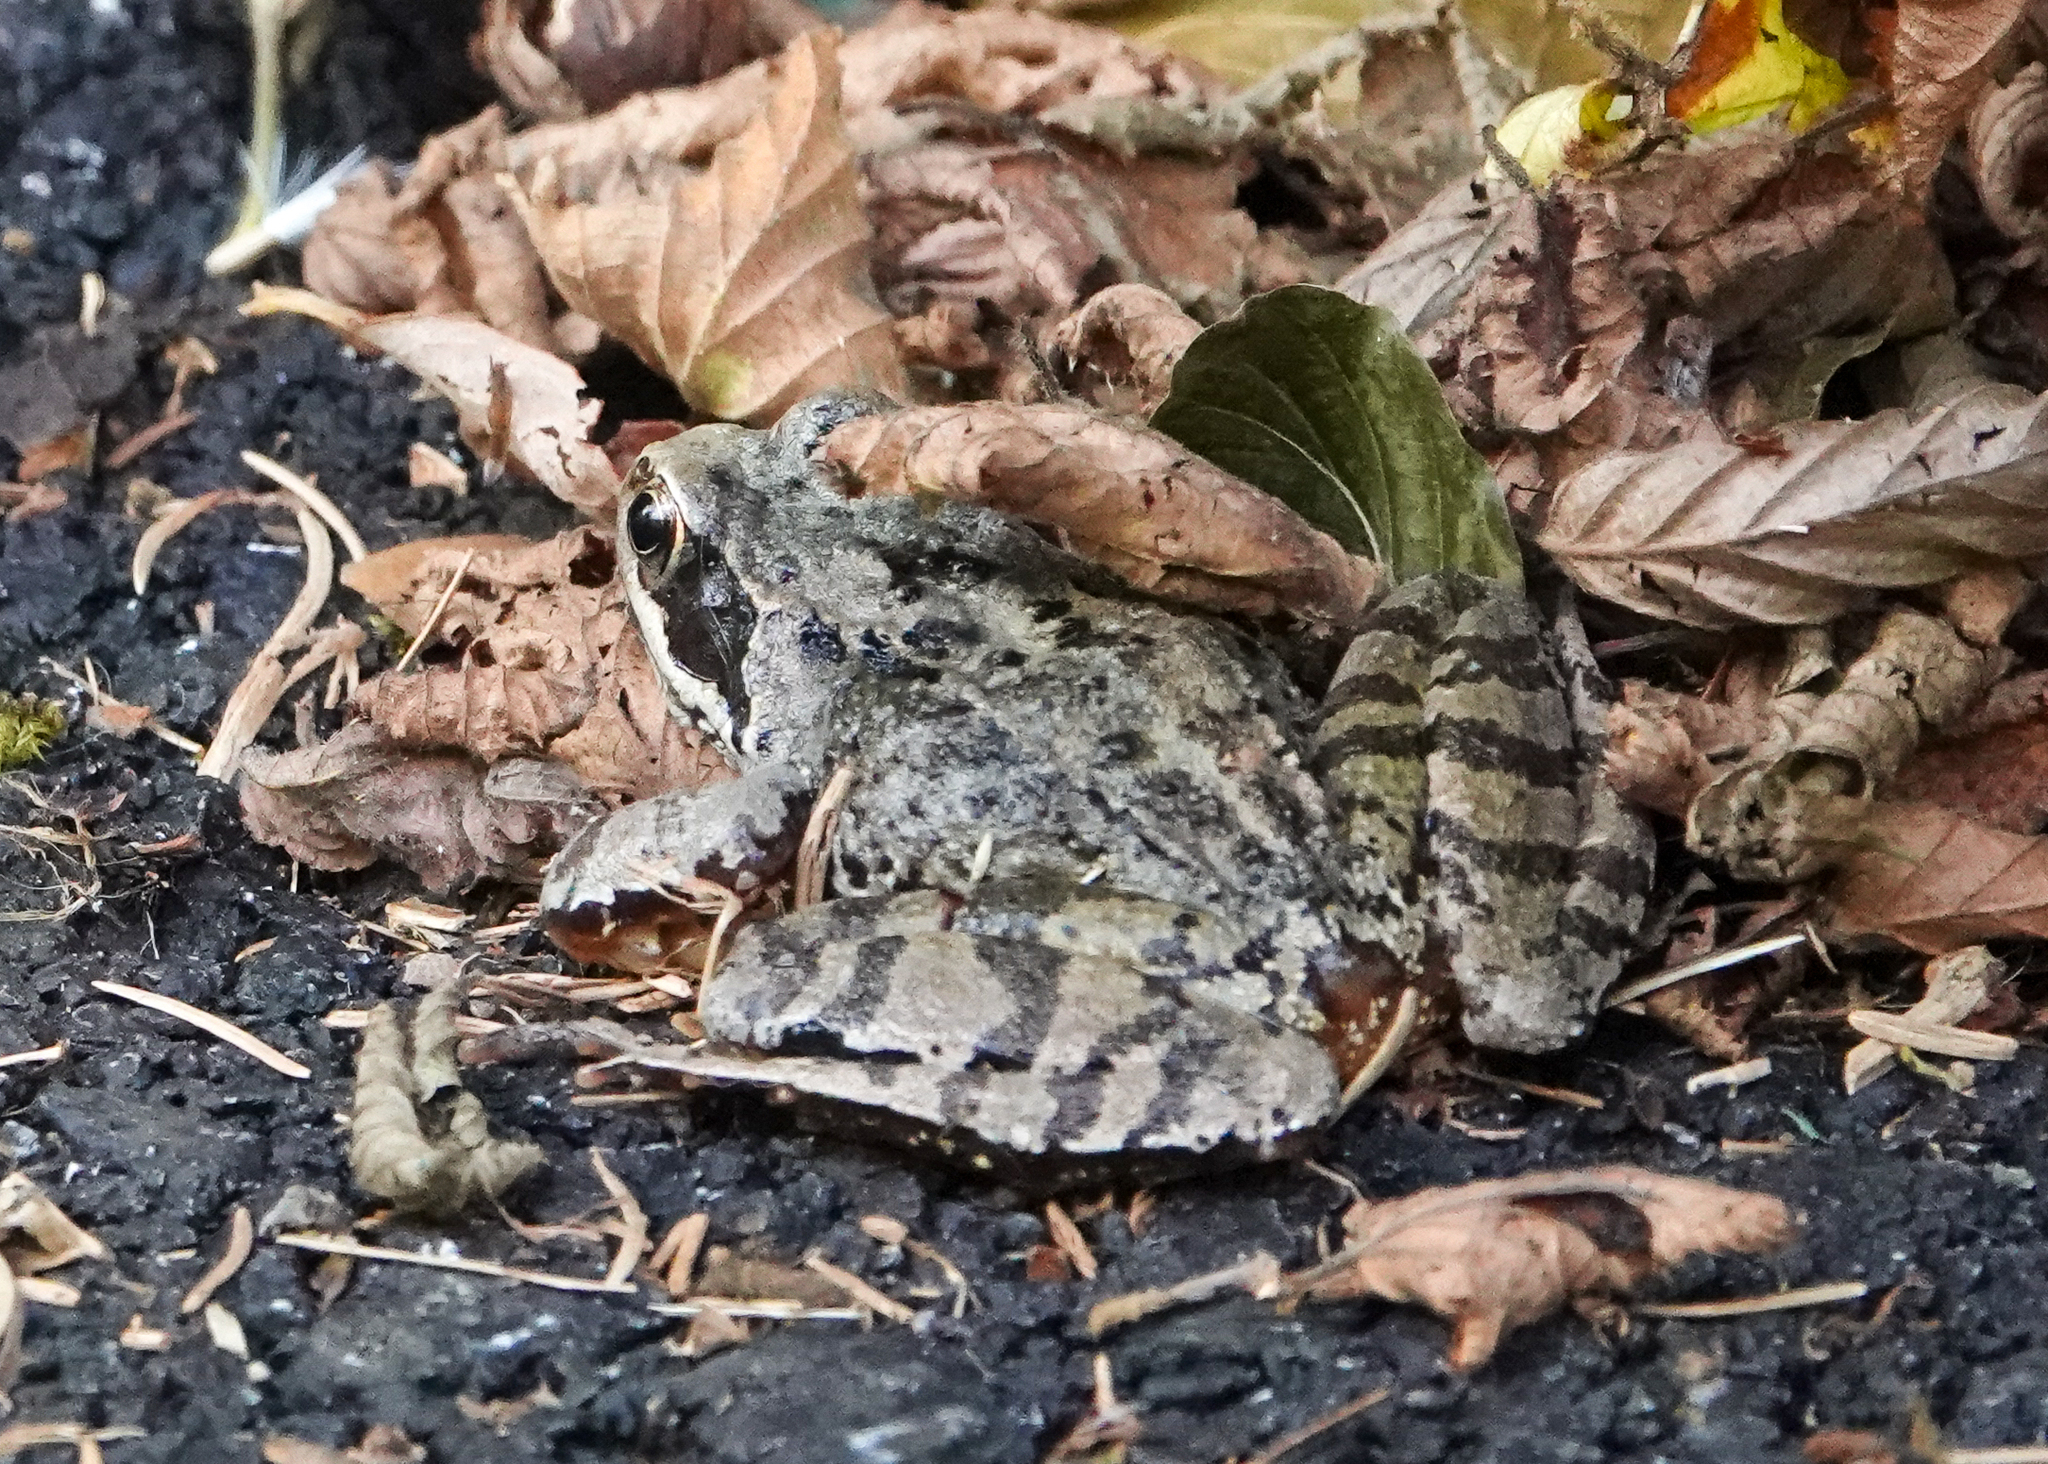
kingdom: Animalia
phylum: Chordata
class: Amphibia
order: Anura
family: Ranidae
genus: Rana
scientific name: Rana temporaria
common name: Common frog
